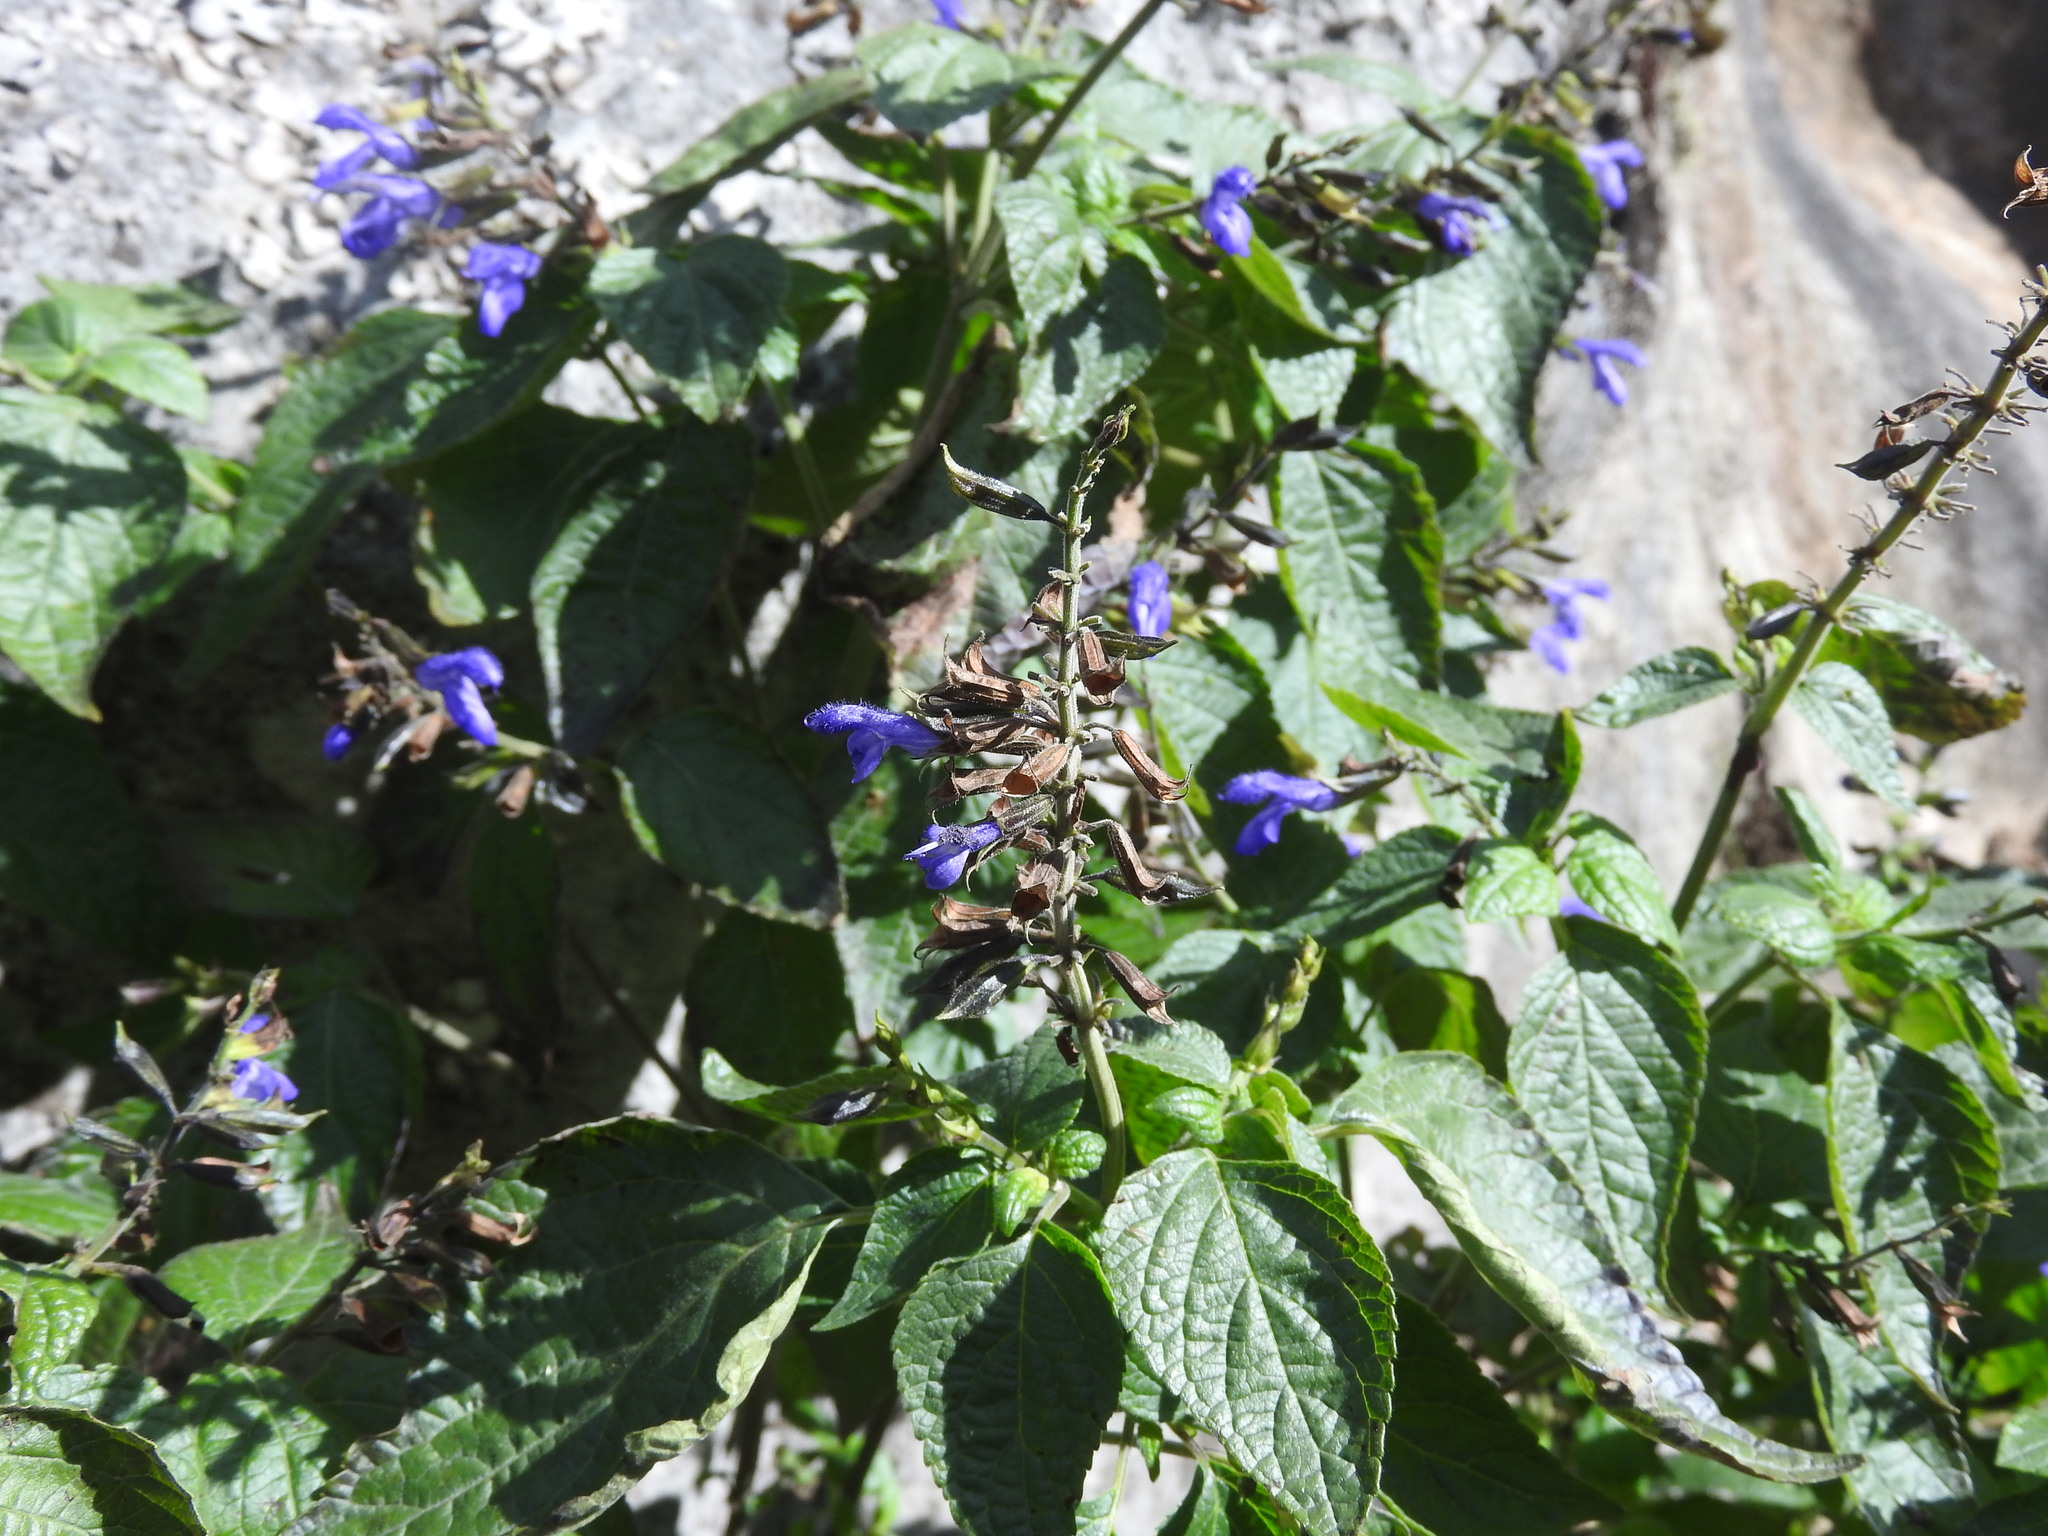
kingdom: Plantae
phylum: Tracheophyta
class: Magnoliopsida
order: Lamiales
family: Lamiaceae
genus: Salvia
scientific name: Salvia mexicana
